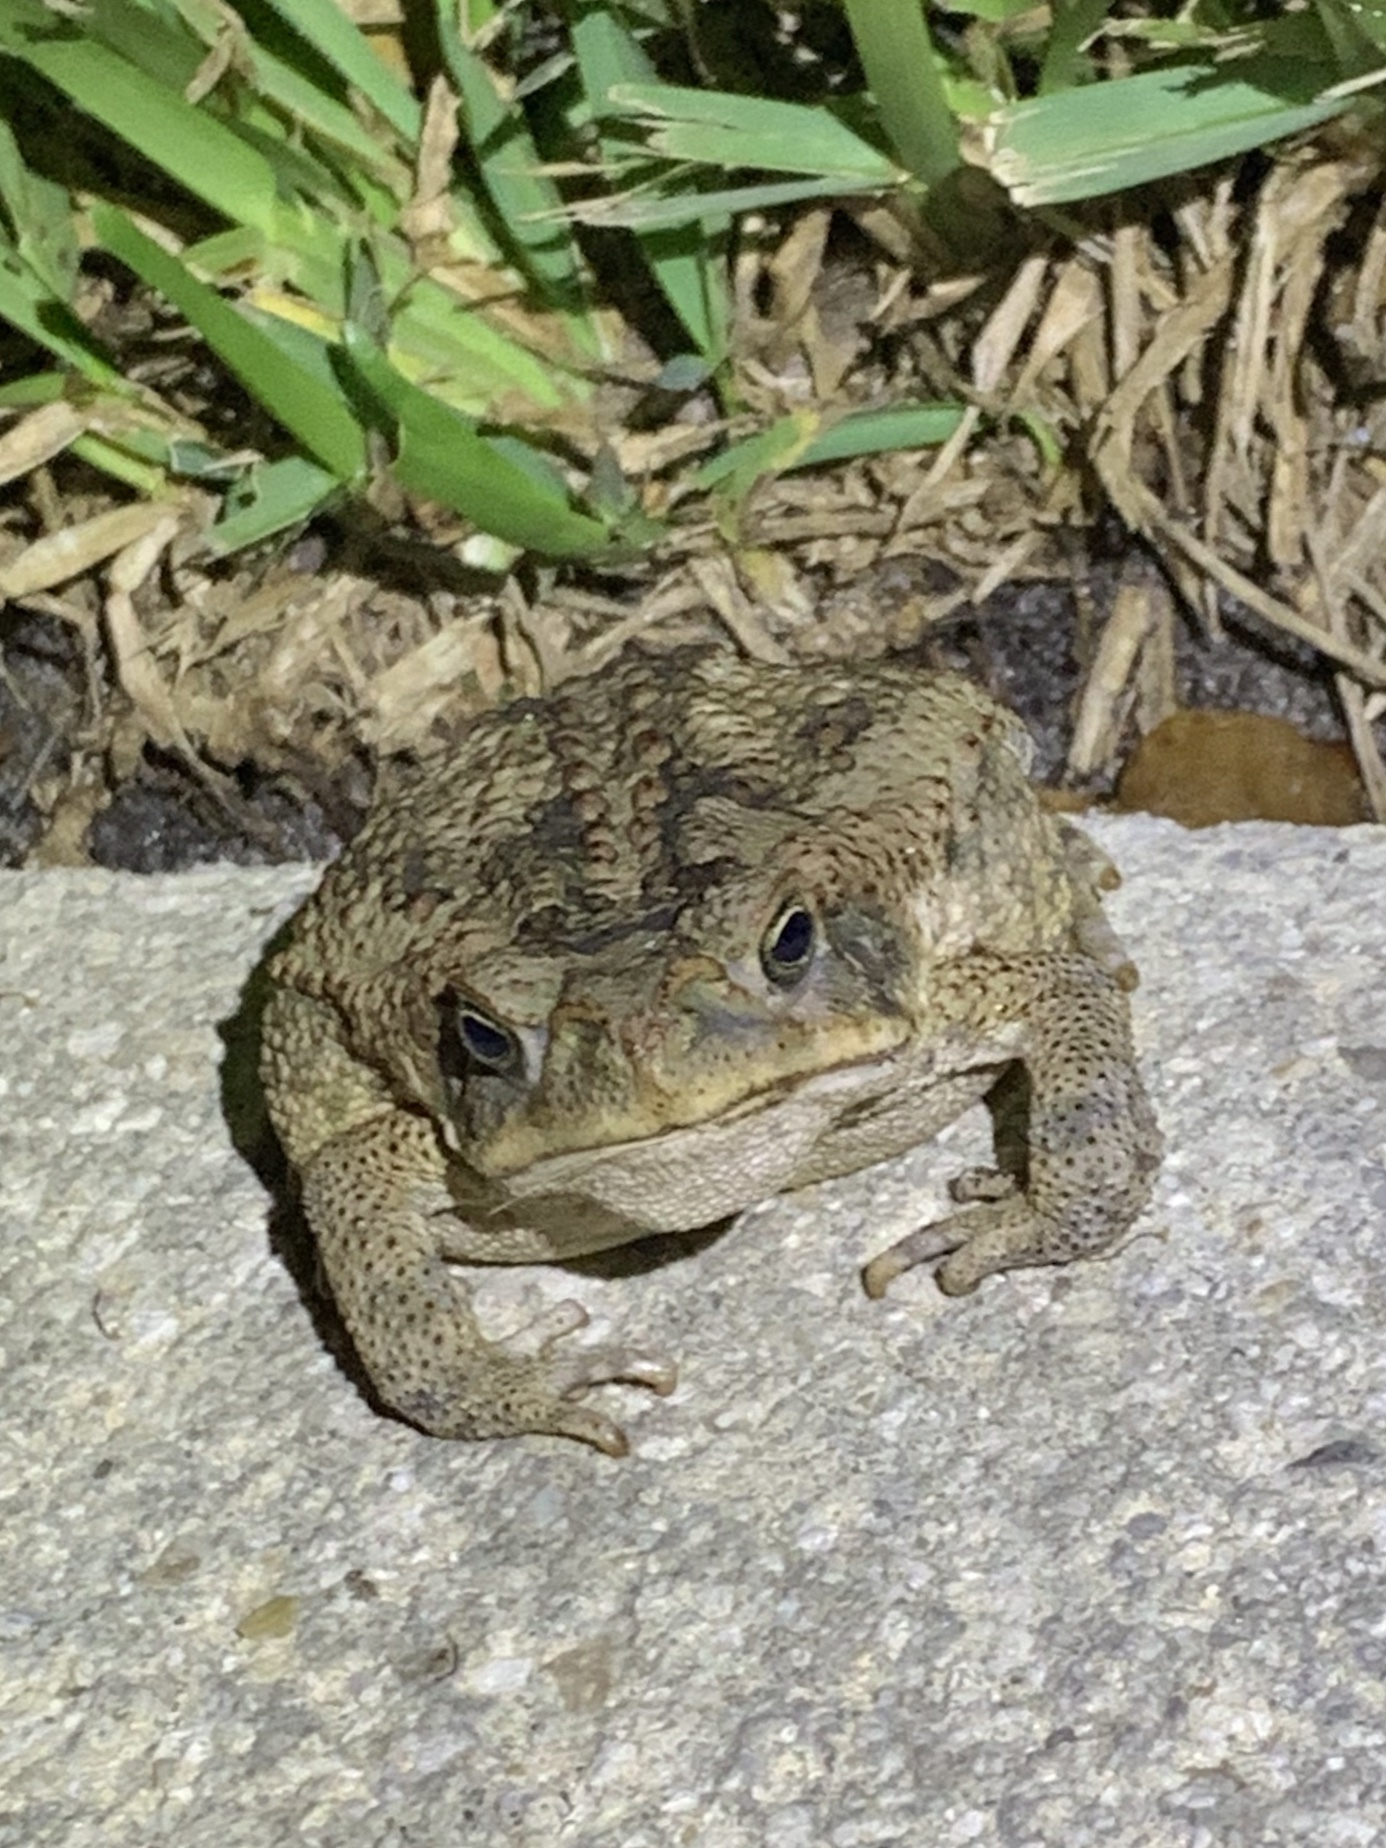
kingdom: Animalia
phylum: Chordata
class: Amphibia
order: Anura
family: Bufonidae
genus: Rhinella
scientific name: Rhinella marina
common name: Cane toad
